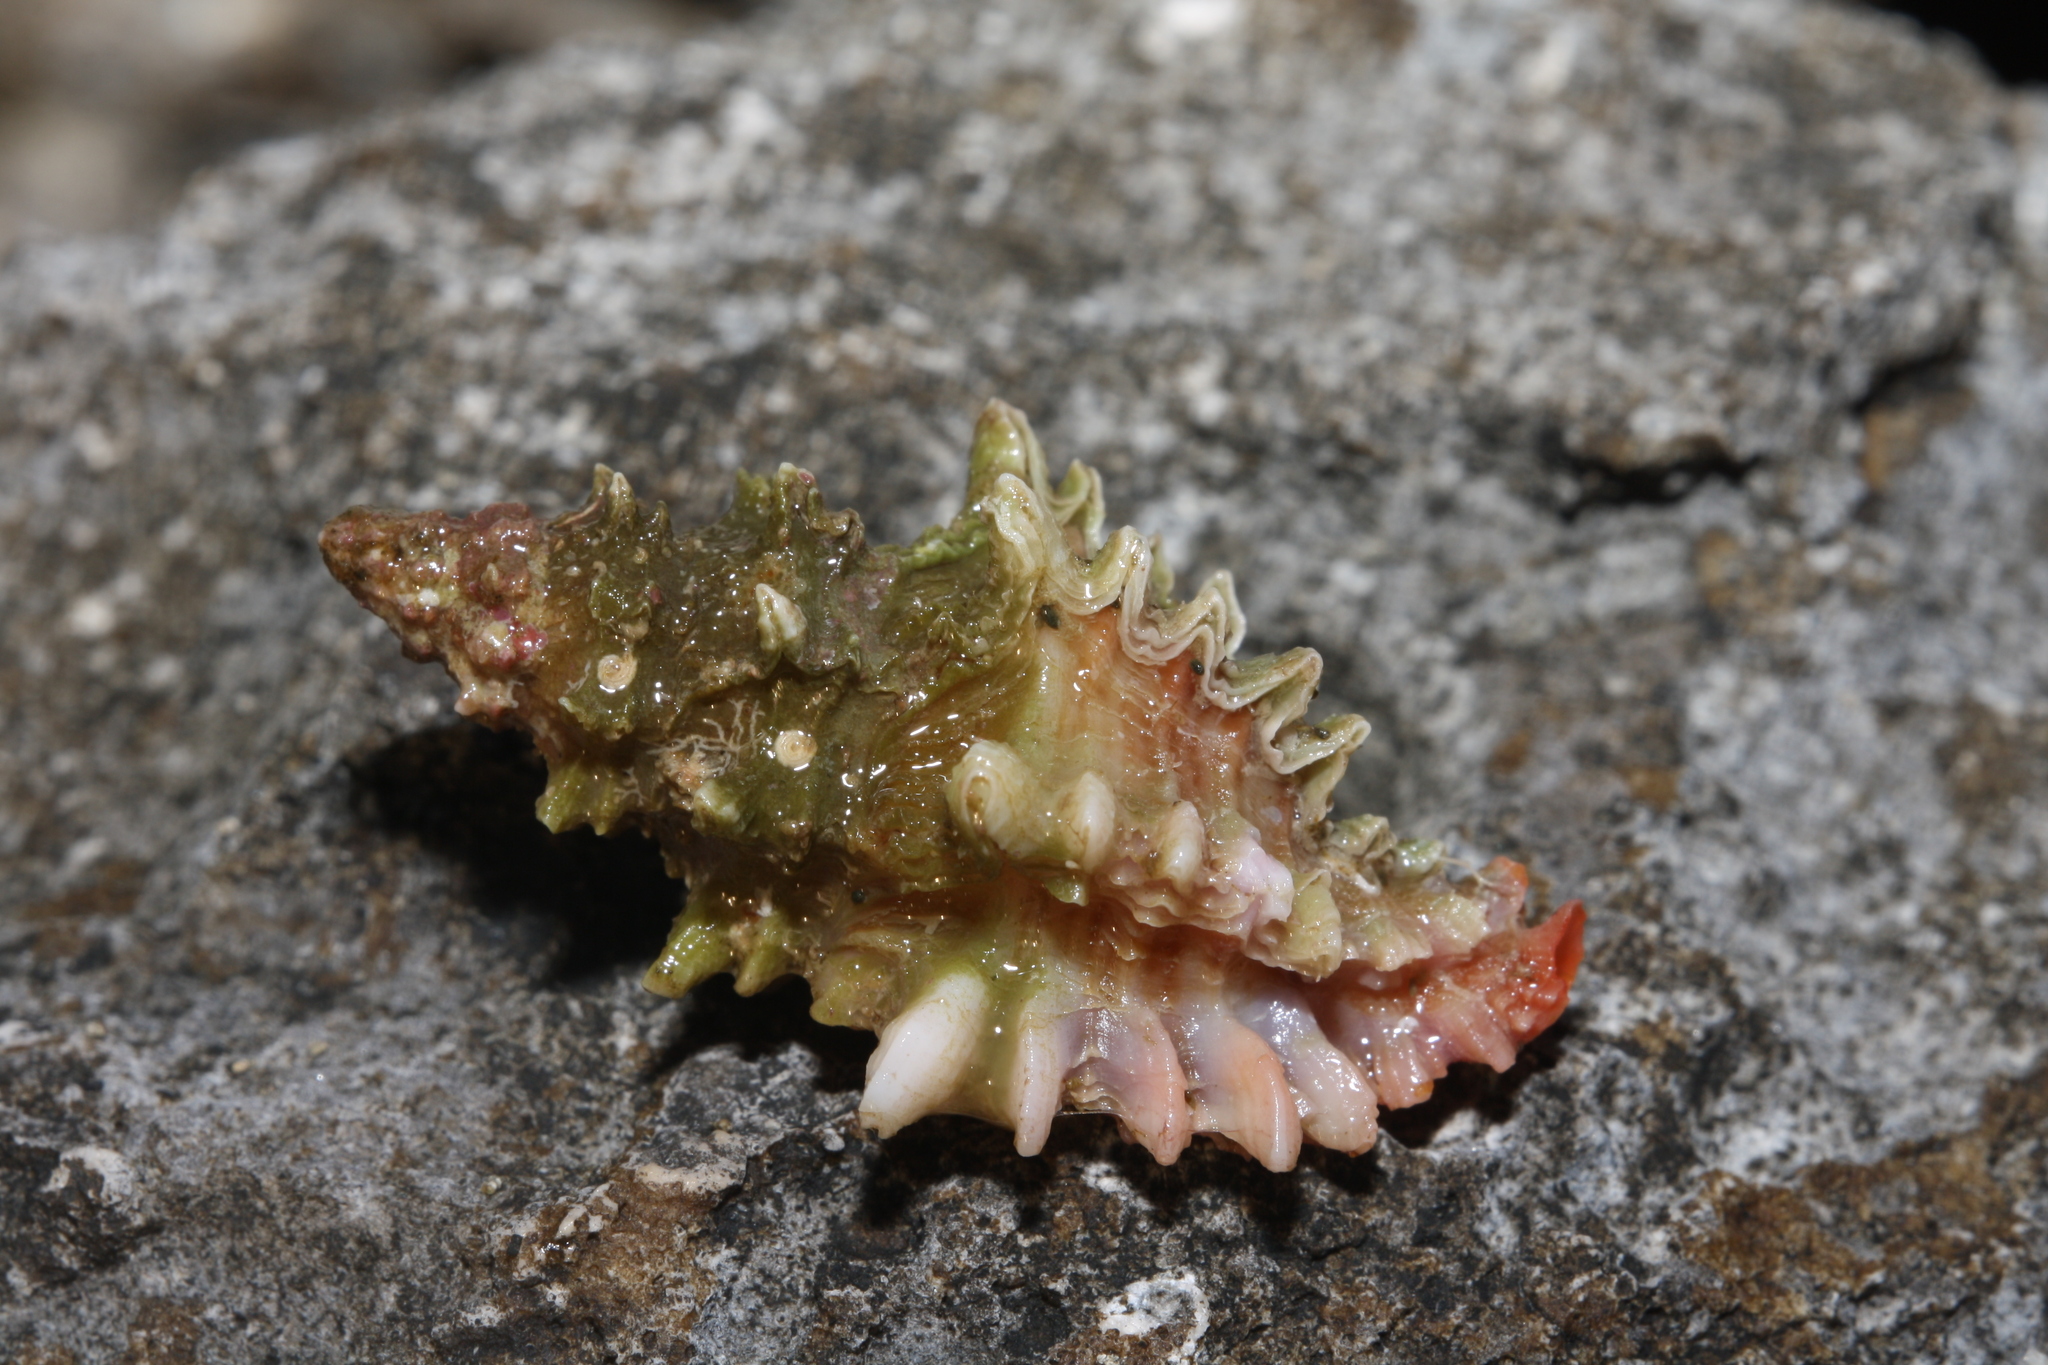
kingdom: Animalia
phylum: Mollusca
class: Gastropoda
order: Neogastropoda
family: Muricidae
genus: Muricopsis
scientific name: Muricopsis cristata
